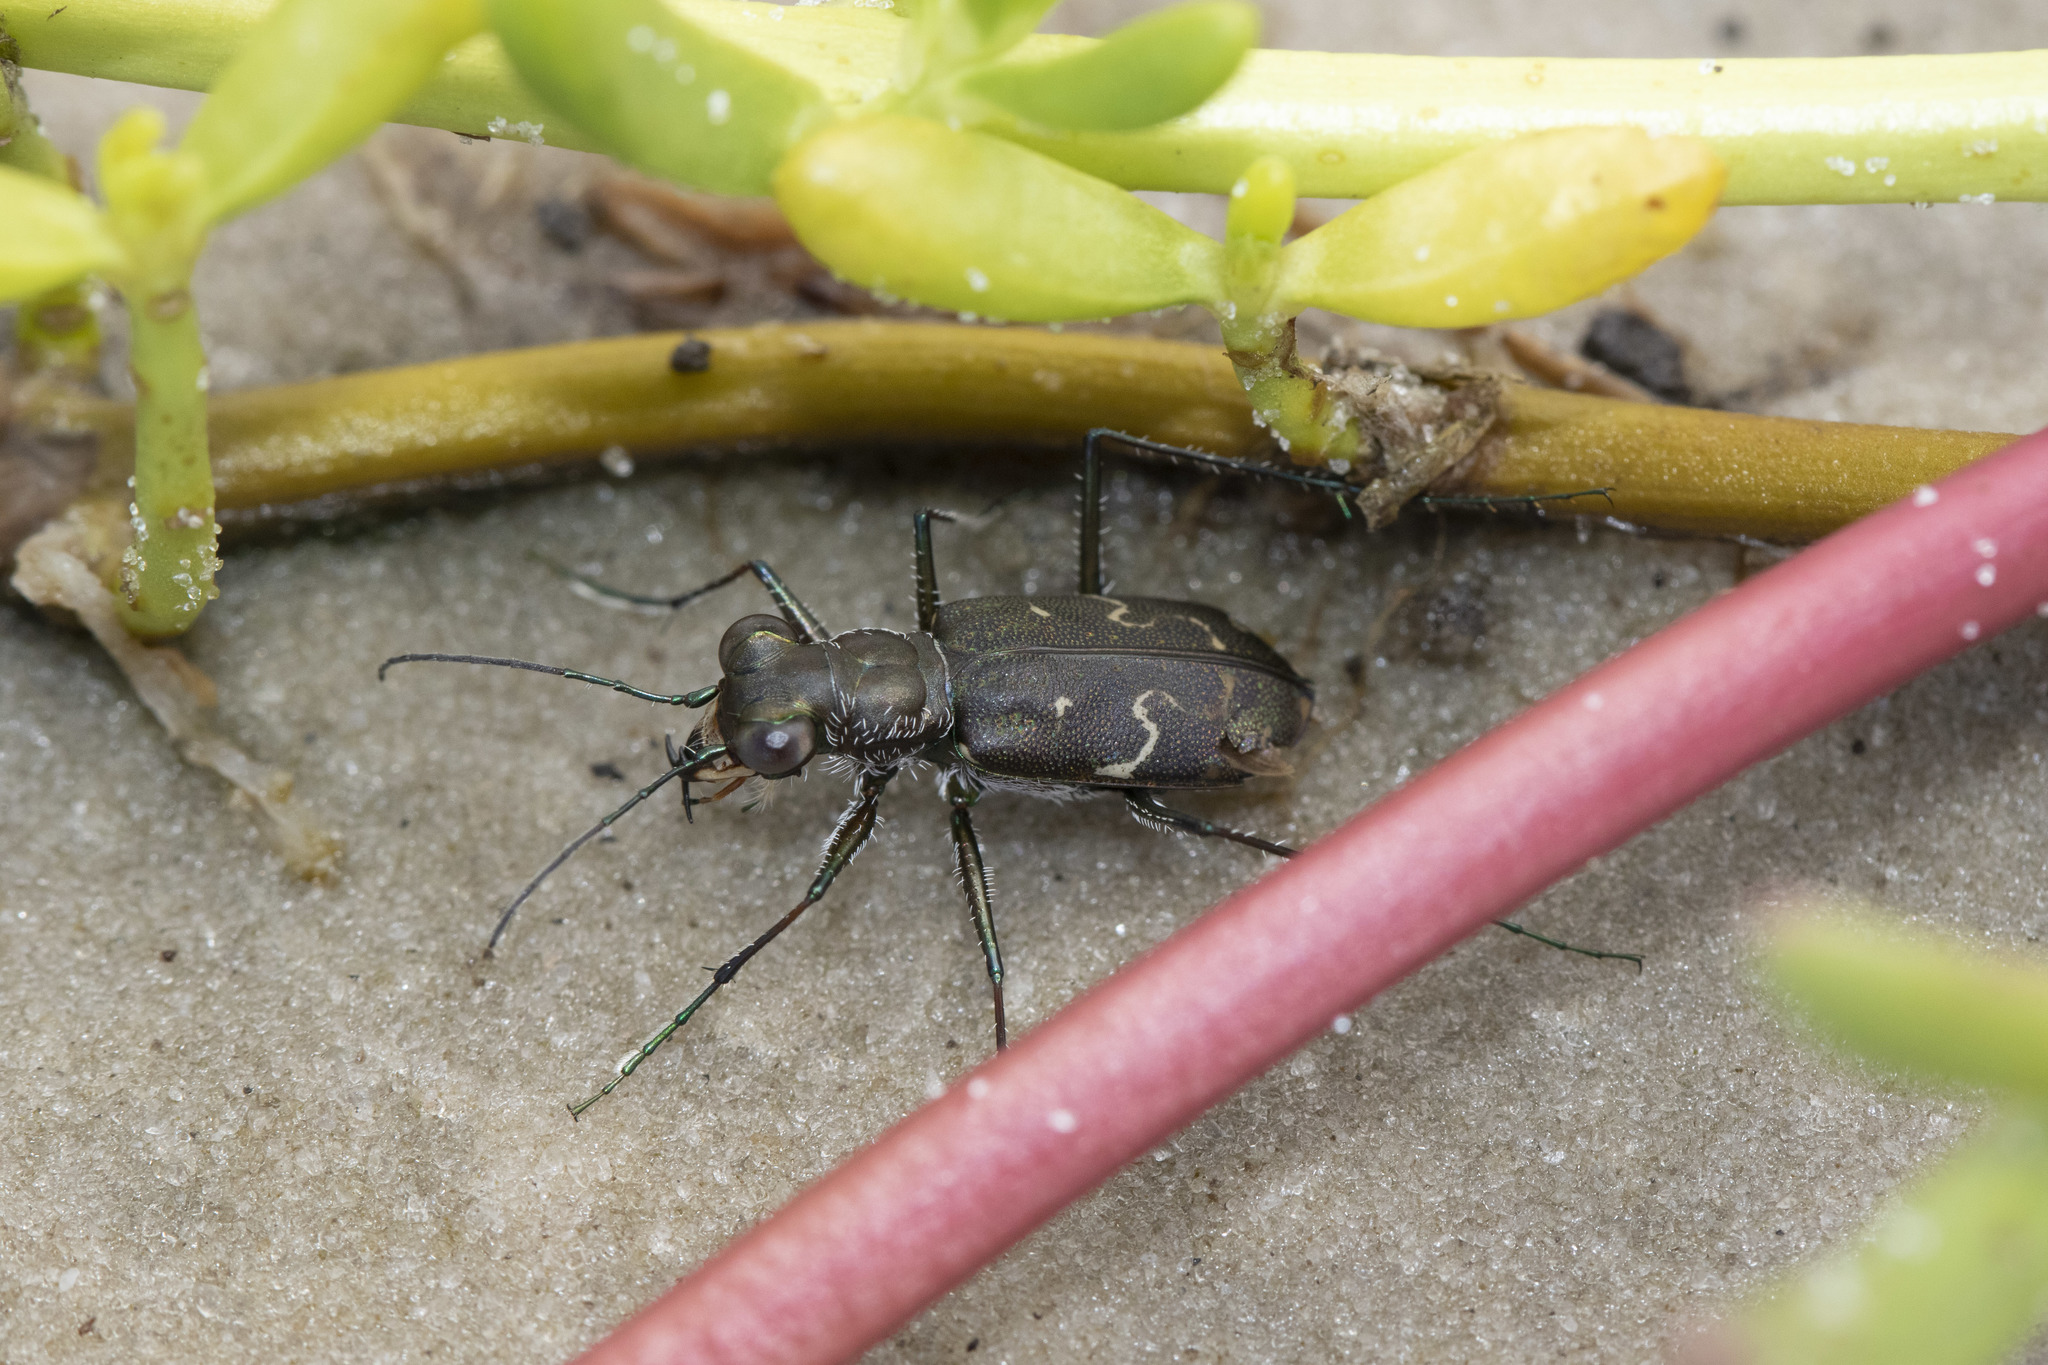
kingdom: Animalia
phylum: Arthropoda
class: Insecta
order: Coleoptera
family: Carabidae
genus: Cicindela
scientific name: Cicindela trifasciata
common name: Mudflat tiger beetle
